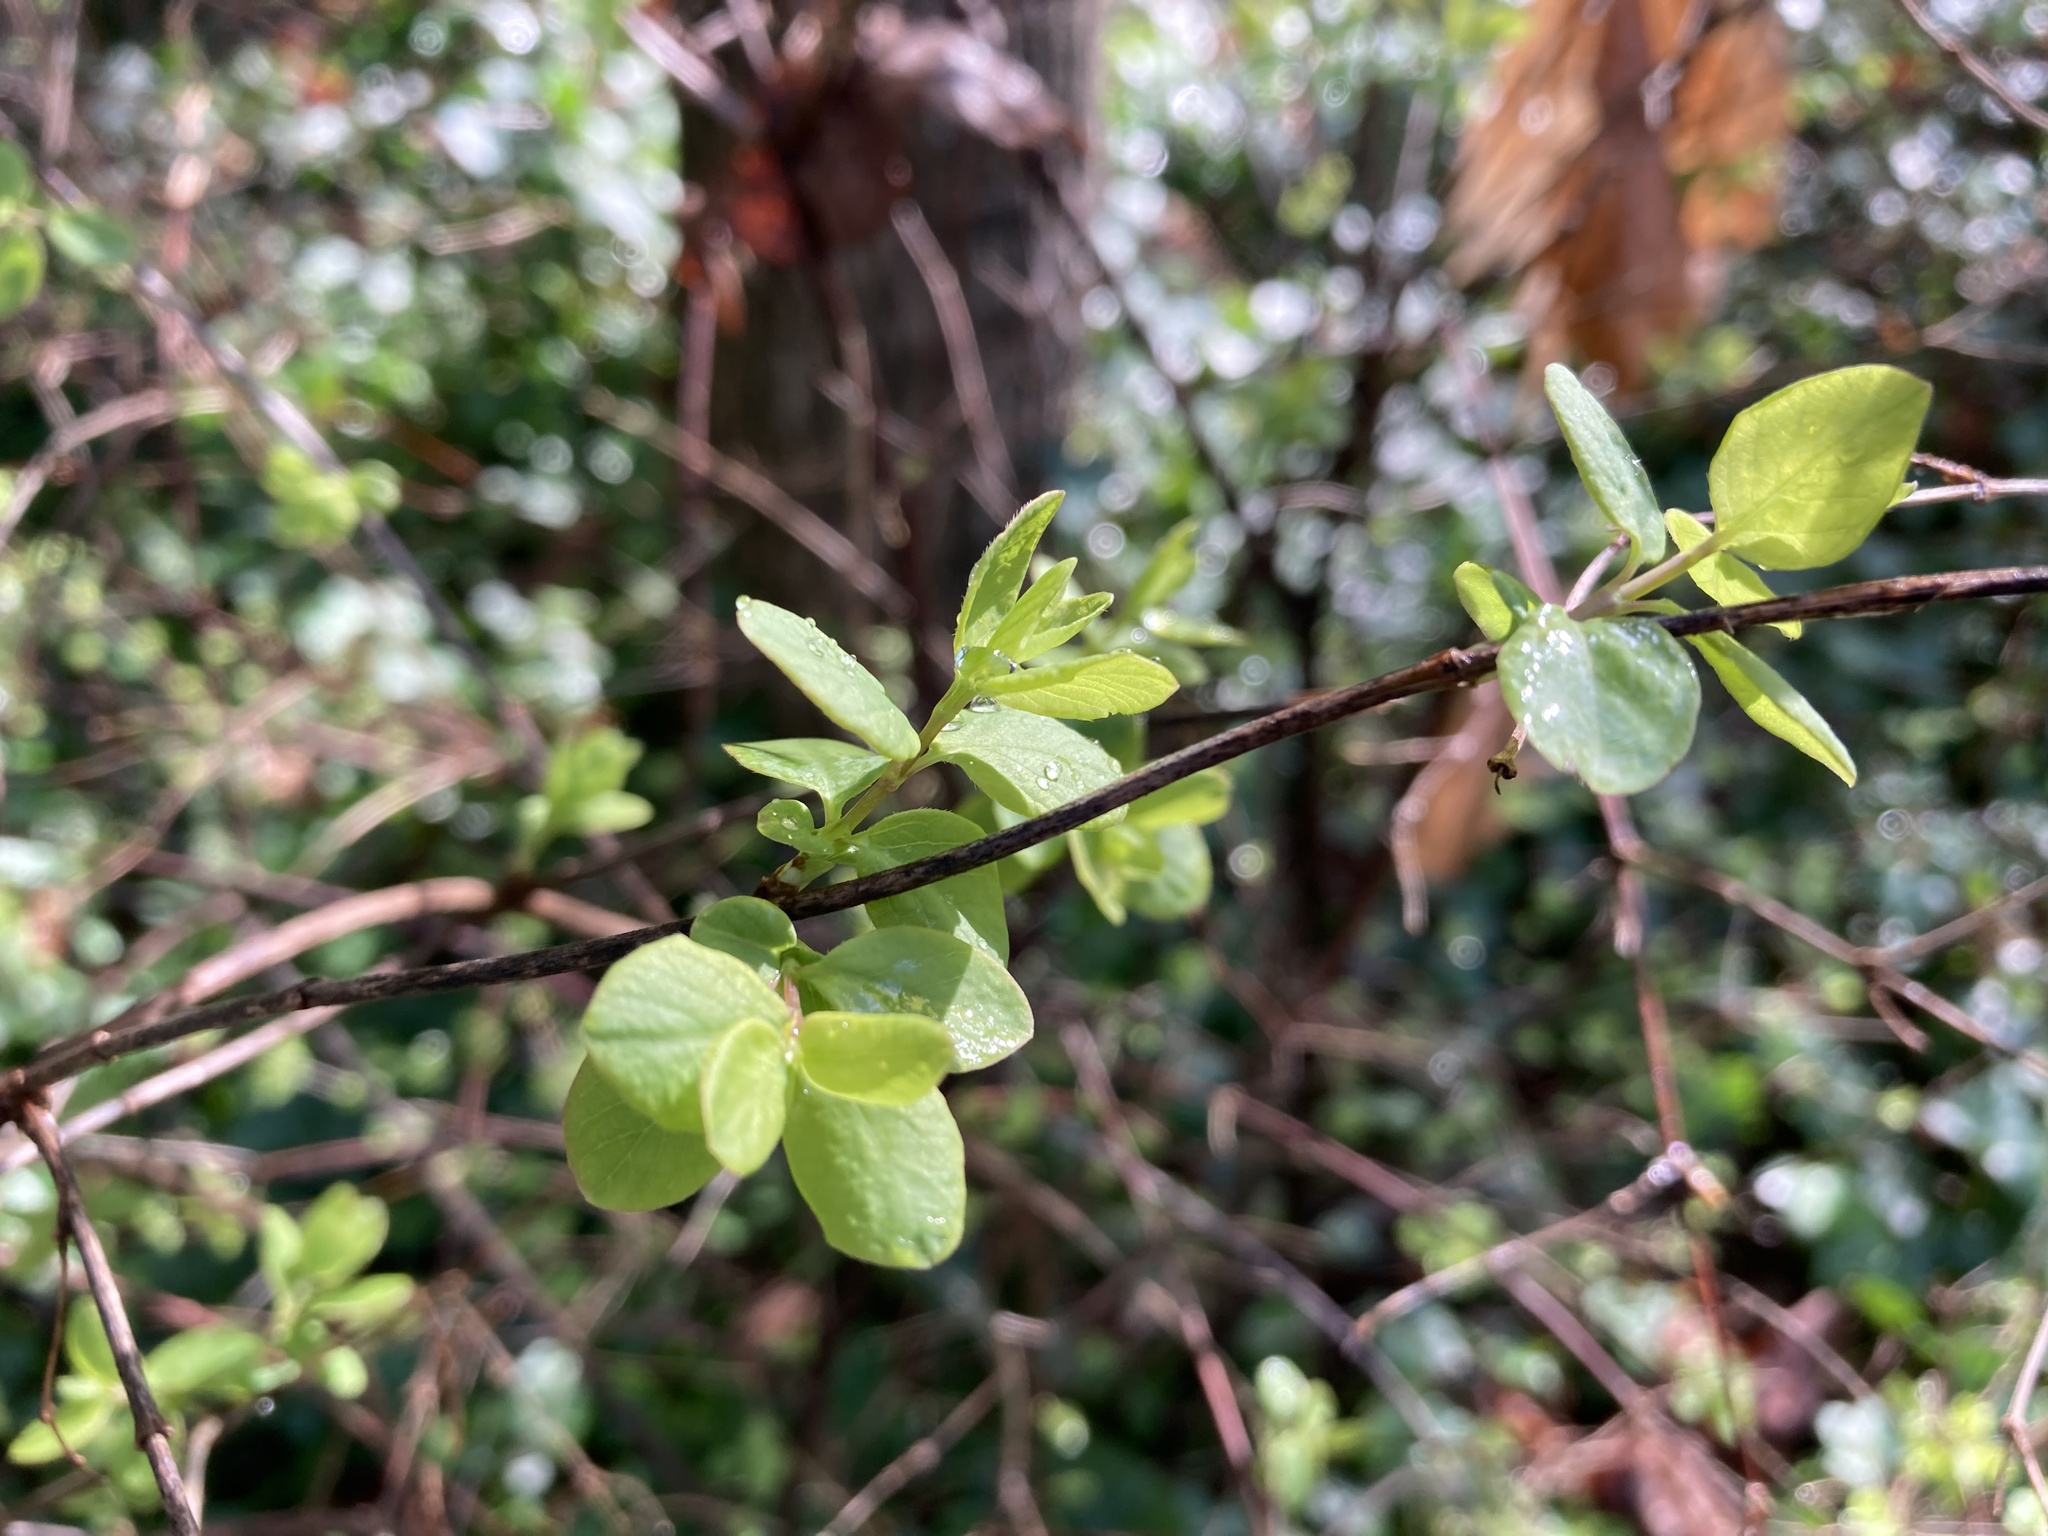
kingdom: Plantae
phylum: Tracheophyta
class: Magnoliopsida
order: Dipsacales
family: Caprifoliaceae
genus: Symphoricarpos
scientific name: Symphoricarpos albus
